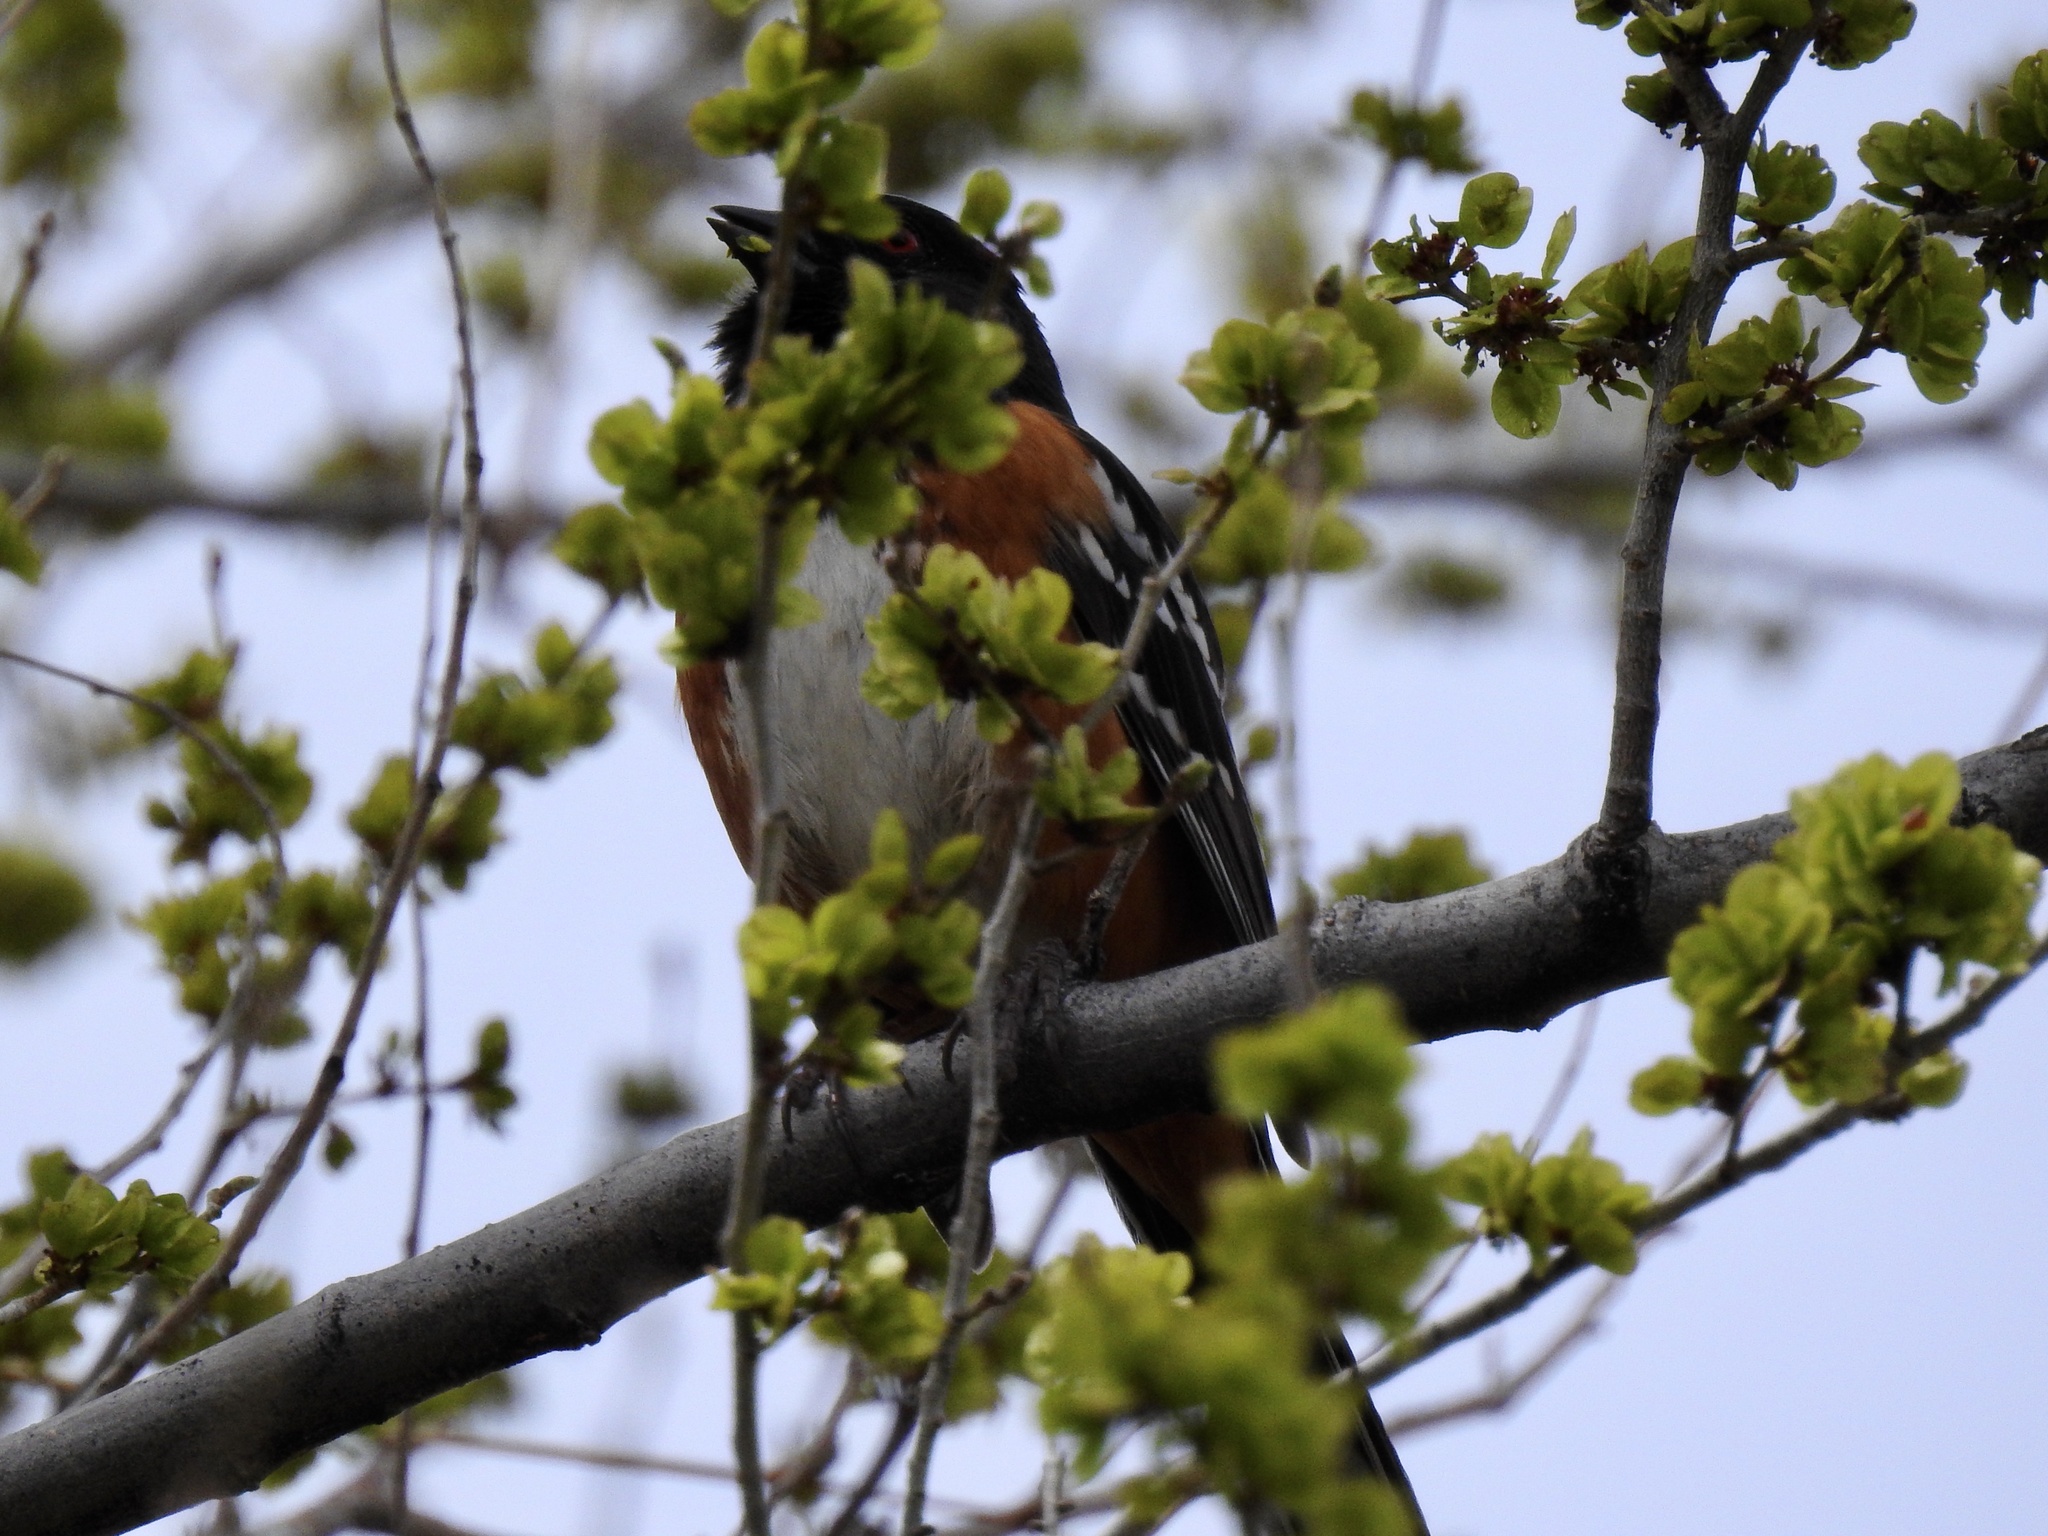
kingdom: Animalia
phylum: Chordata
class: Aves
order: Passeriformes
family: Passerellidae
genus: Pipilo
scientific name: Pipilo maculatus
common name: Spotted towhee
